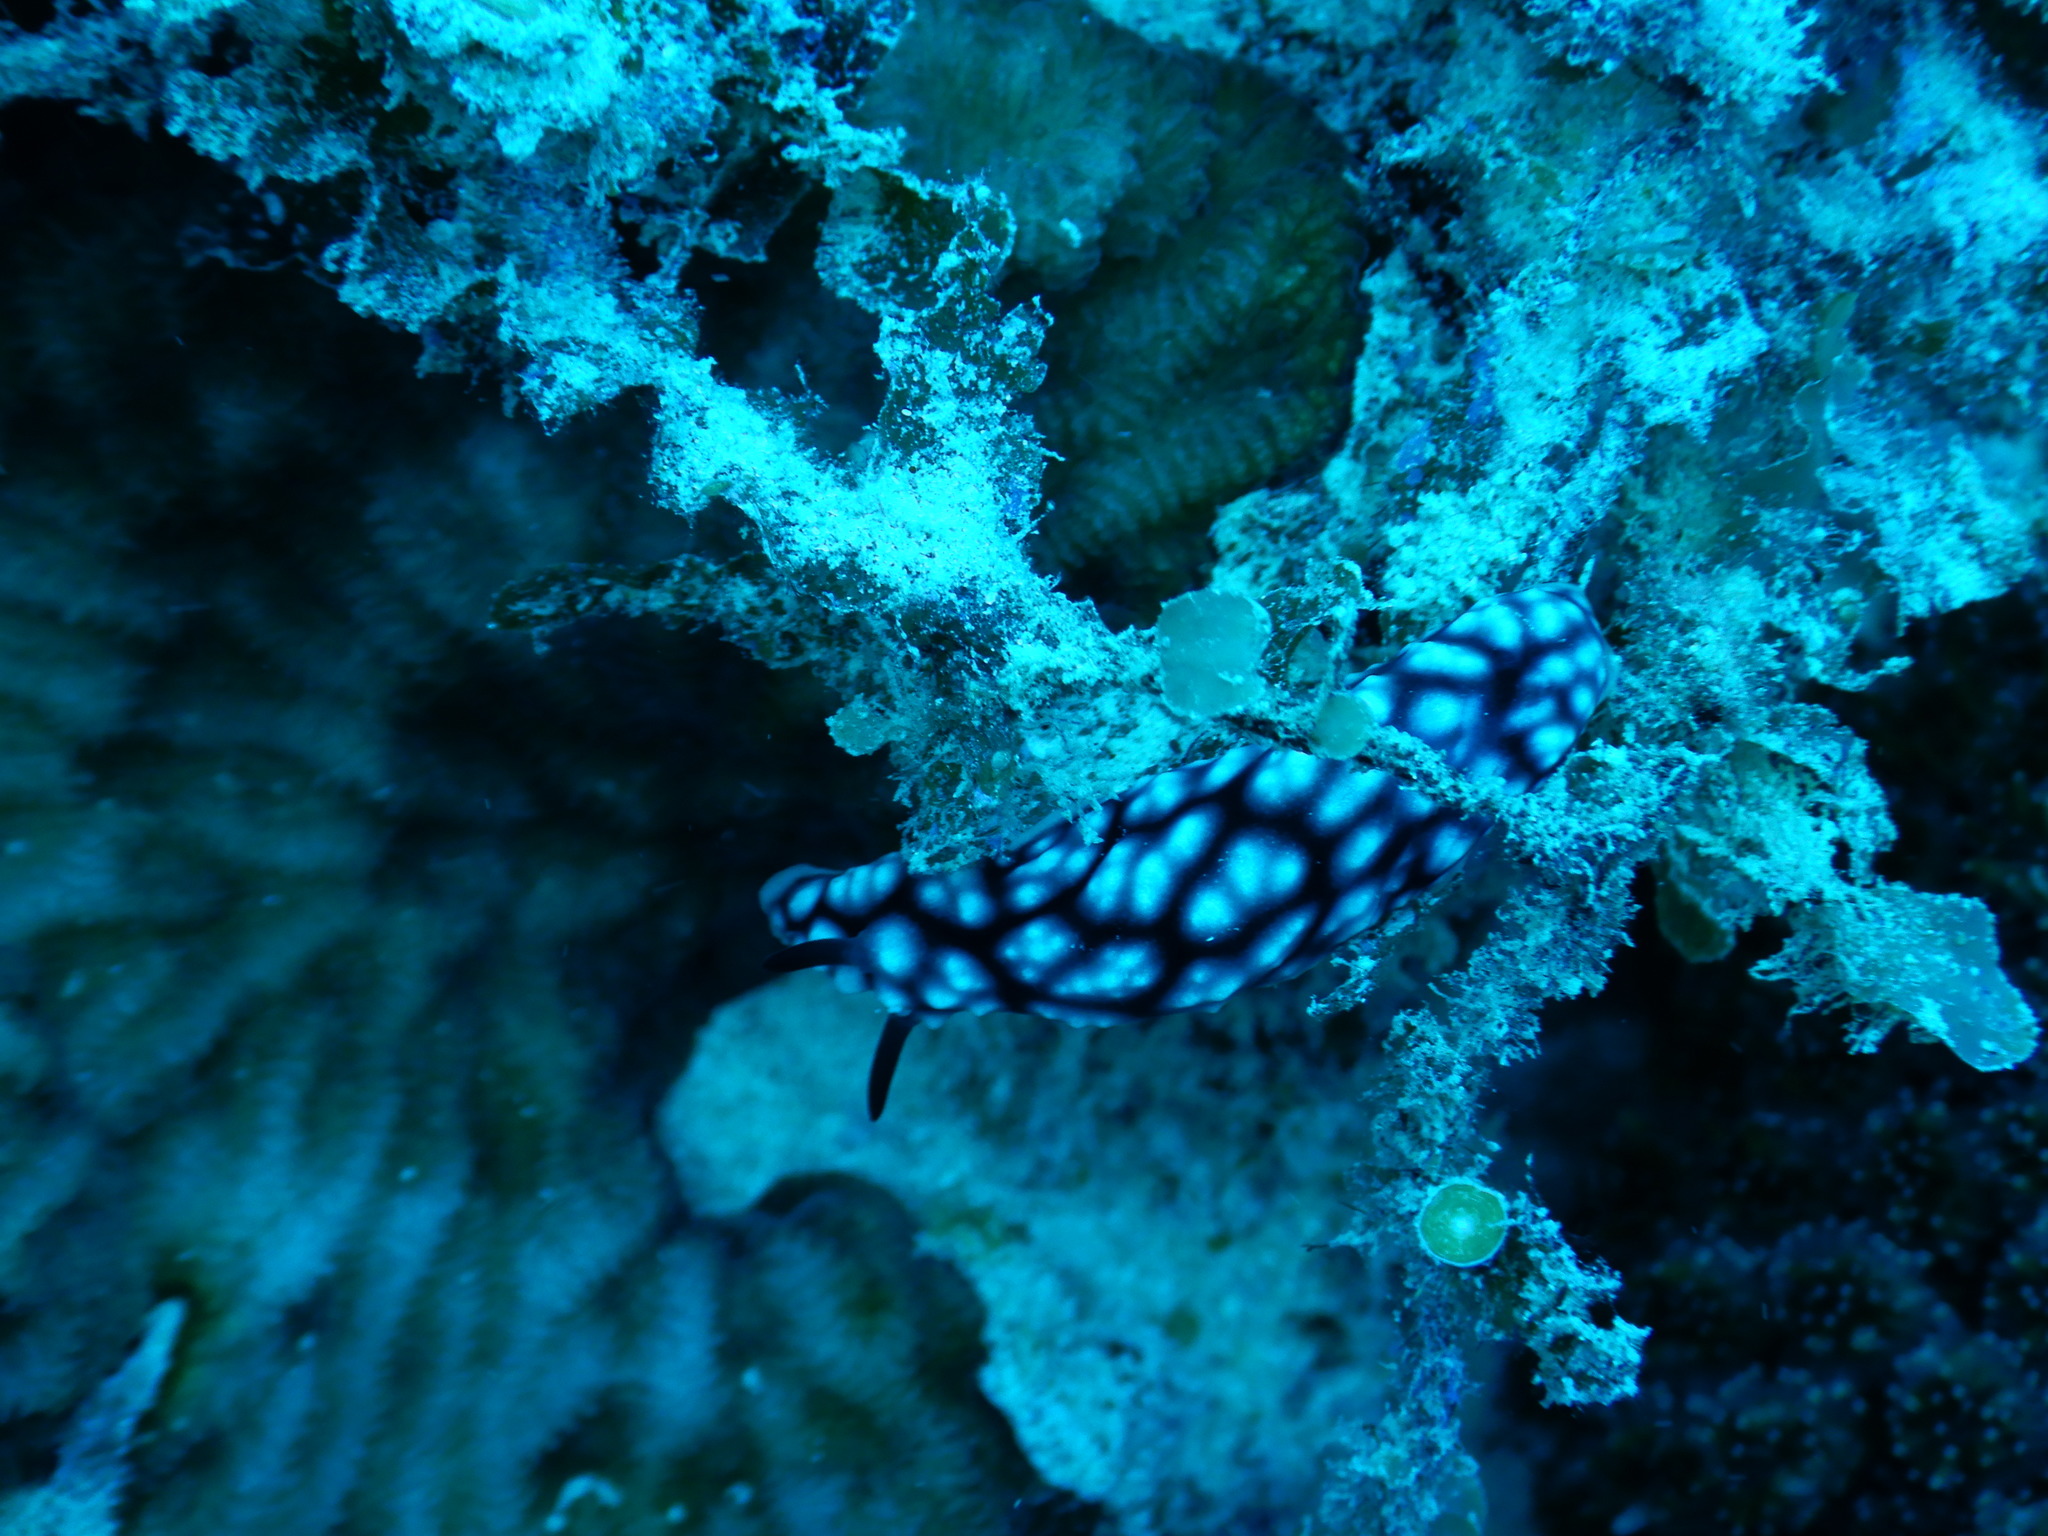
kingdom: Animalia
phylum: Mollusca
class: Gastropoda
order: Nudibranchia
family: Phyllidiidae
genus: Phyllidiella
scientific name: Phyllidiella pustulosa
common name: Pustular phyllidia
